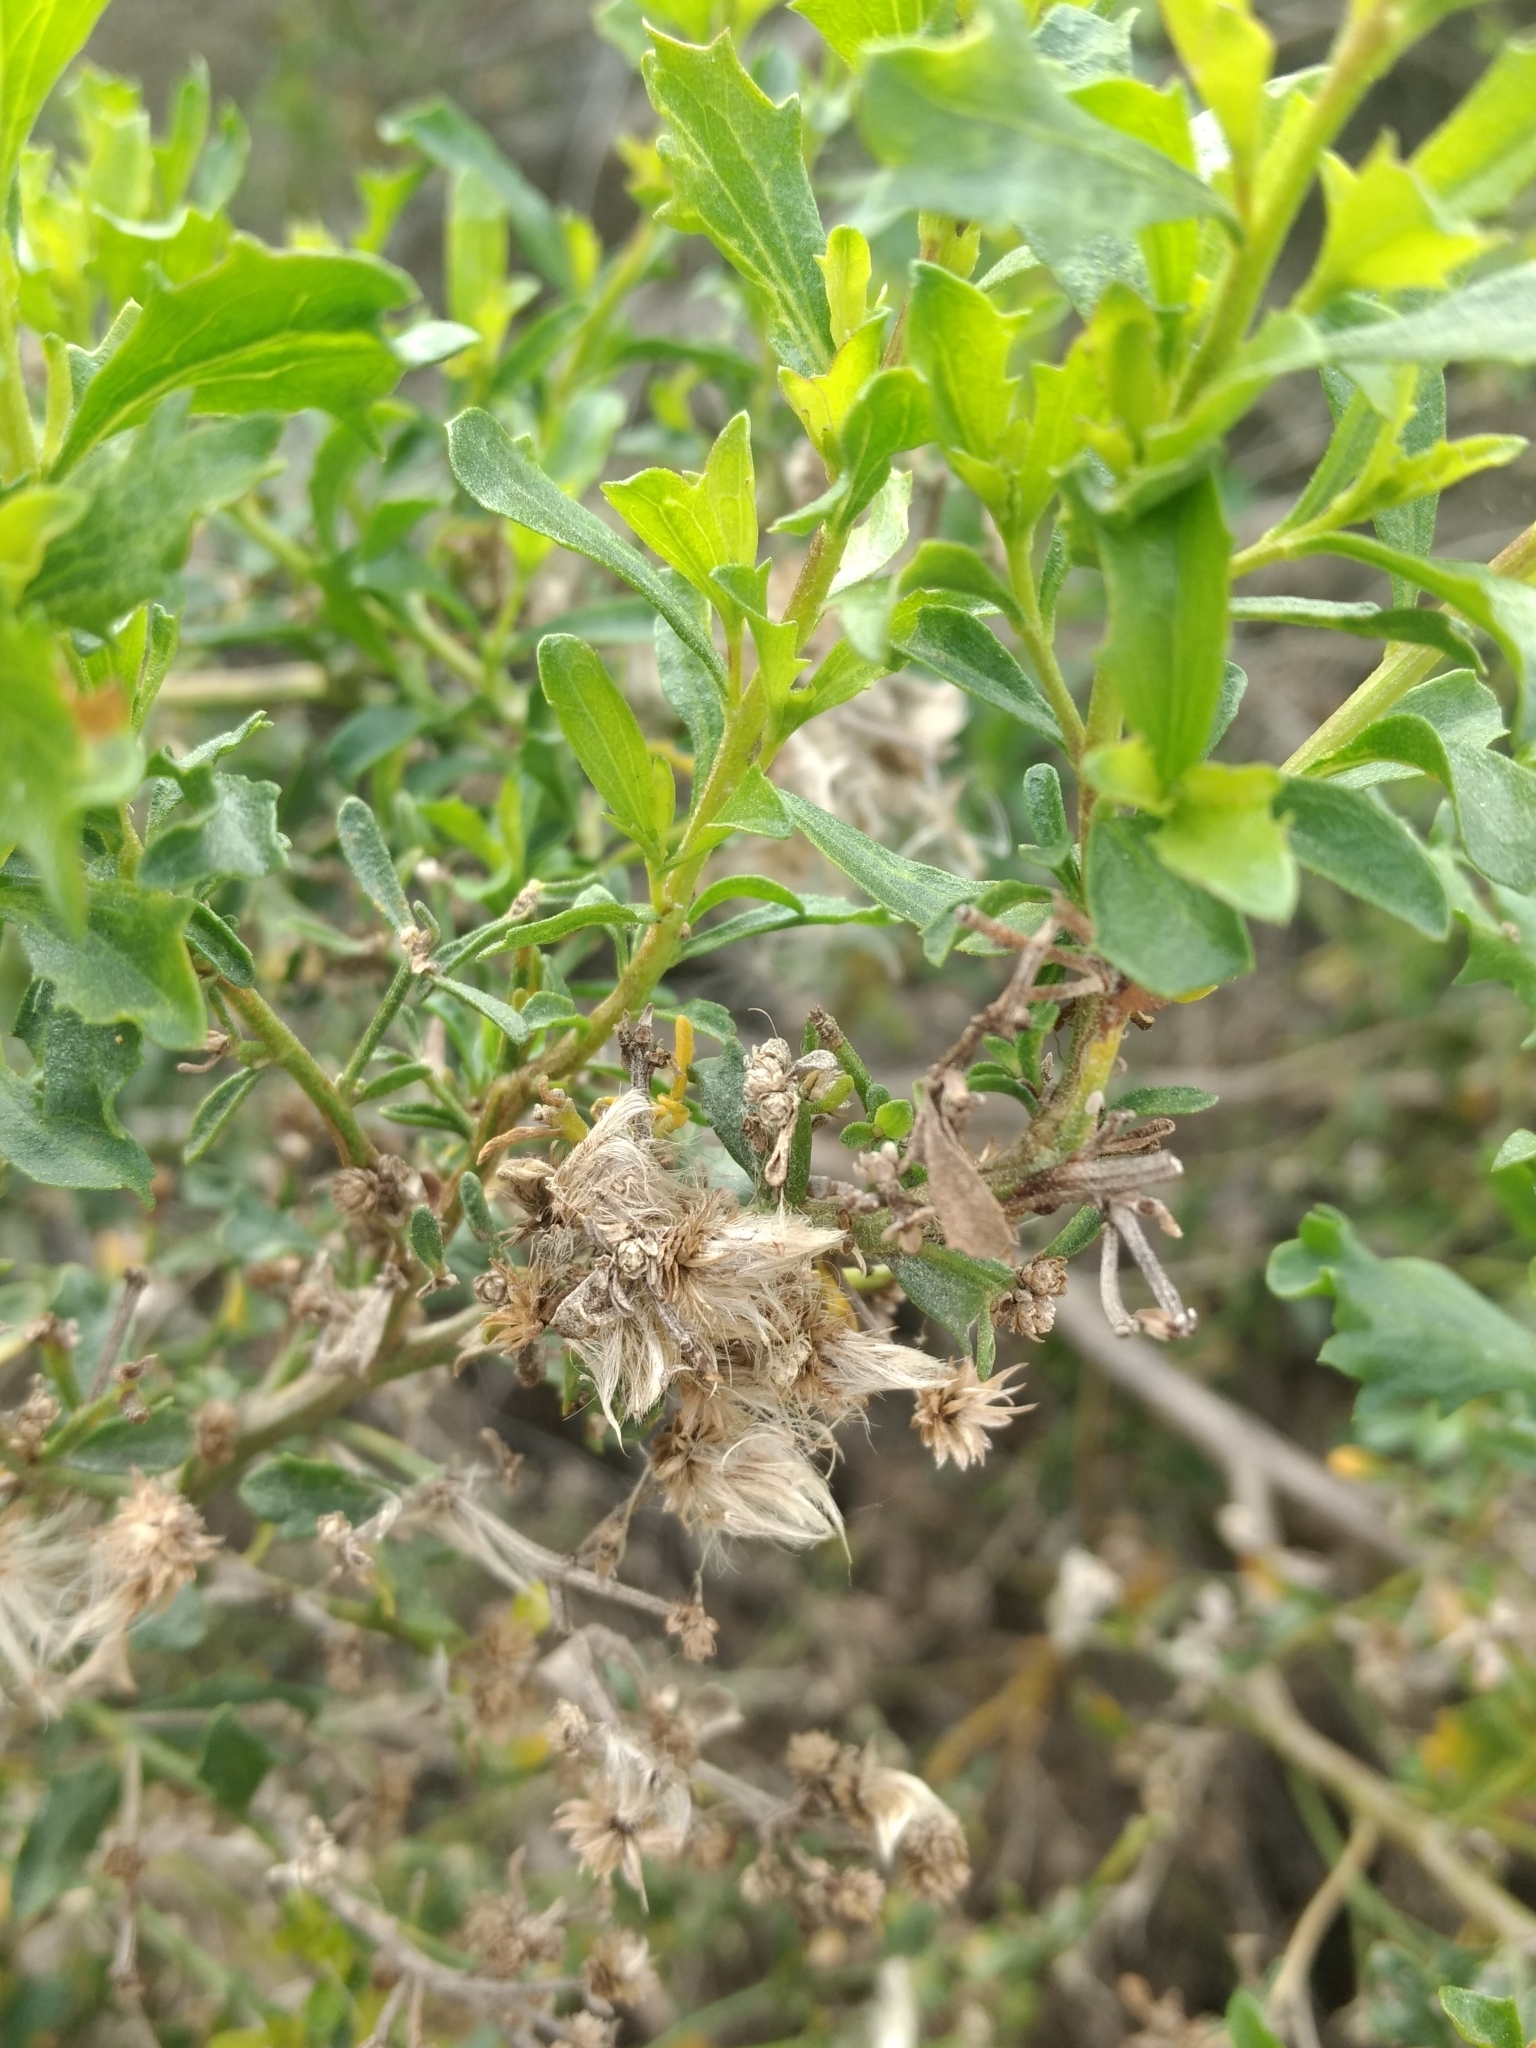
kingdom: Plantae
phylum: Tracheophyta
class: Magnoliopsida
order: Asterales
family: Asteraceae
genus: Baccharis
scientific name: Baccharis pilularis
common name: Coyotebrush
